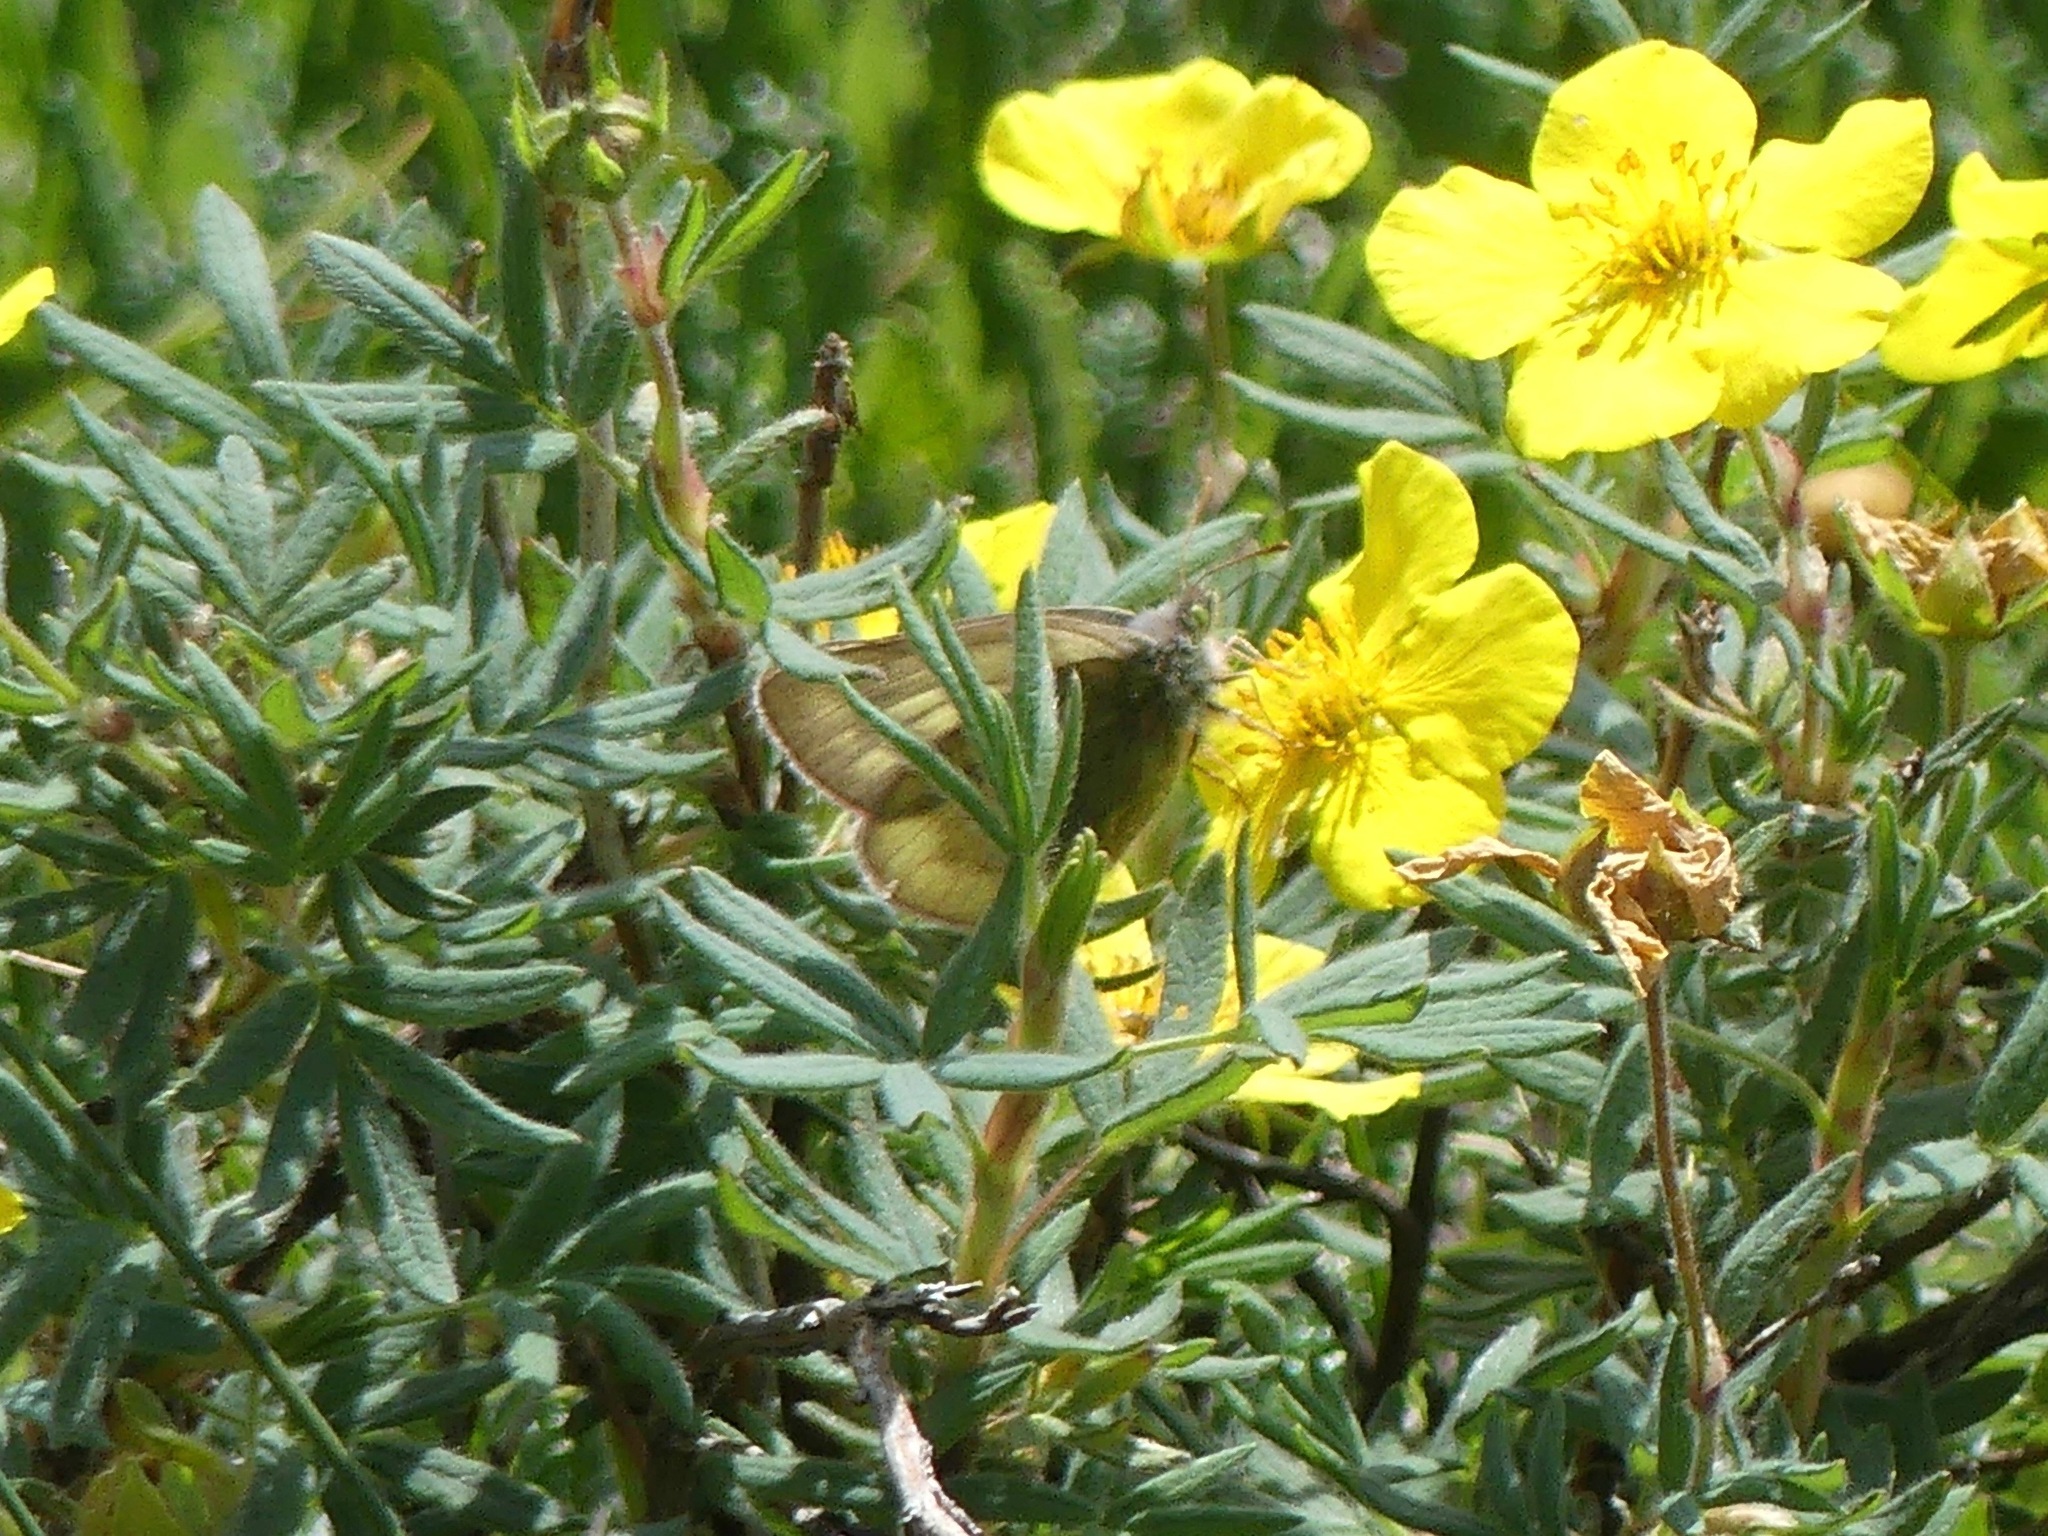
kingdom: Animalia
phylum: Arthropoda
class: Insecta
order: Lepidoptera
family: Pieridae
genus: Colias
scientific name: Colias nastes
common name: Labrador sulphur
